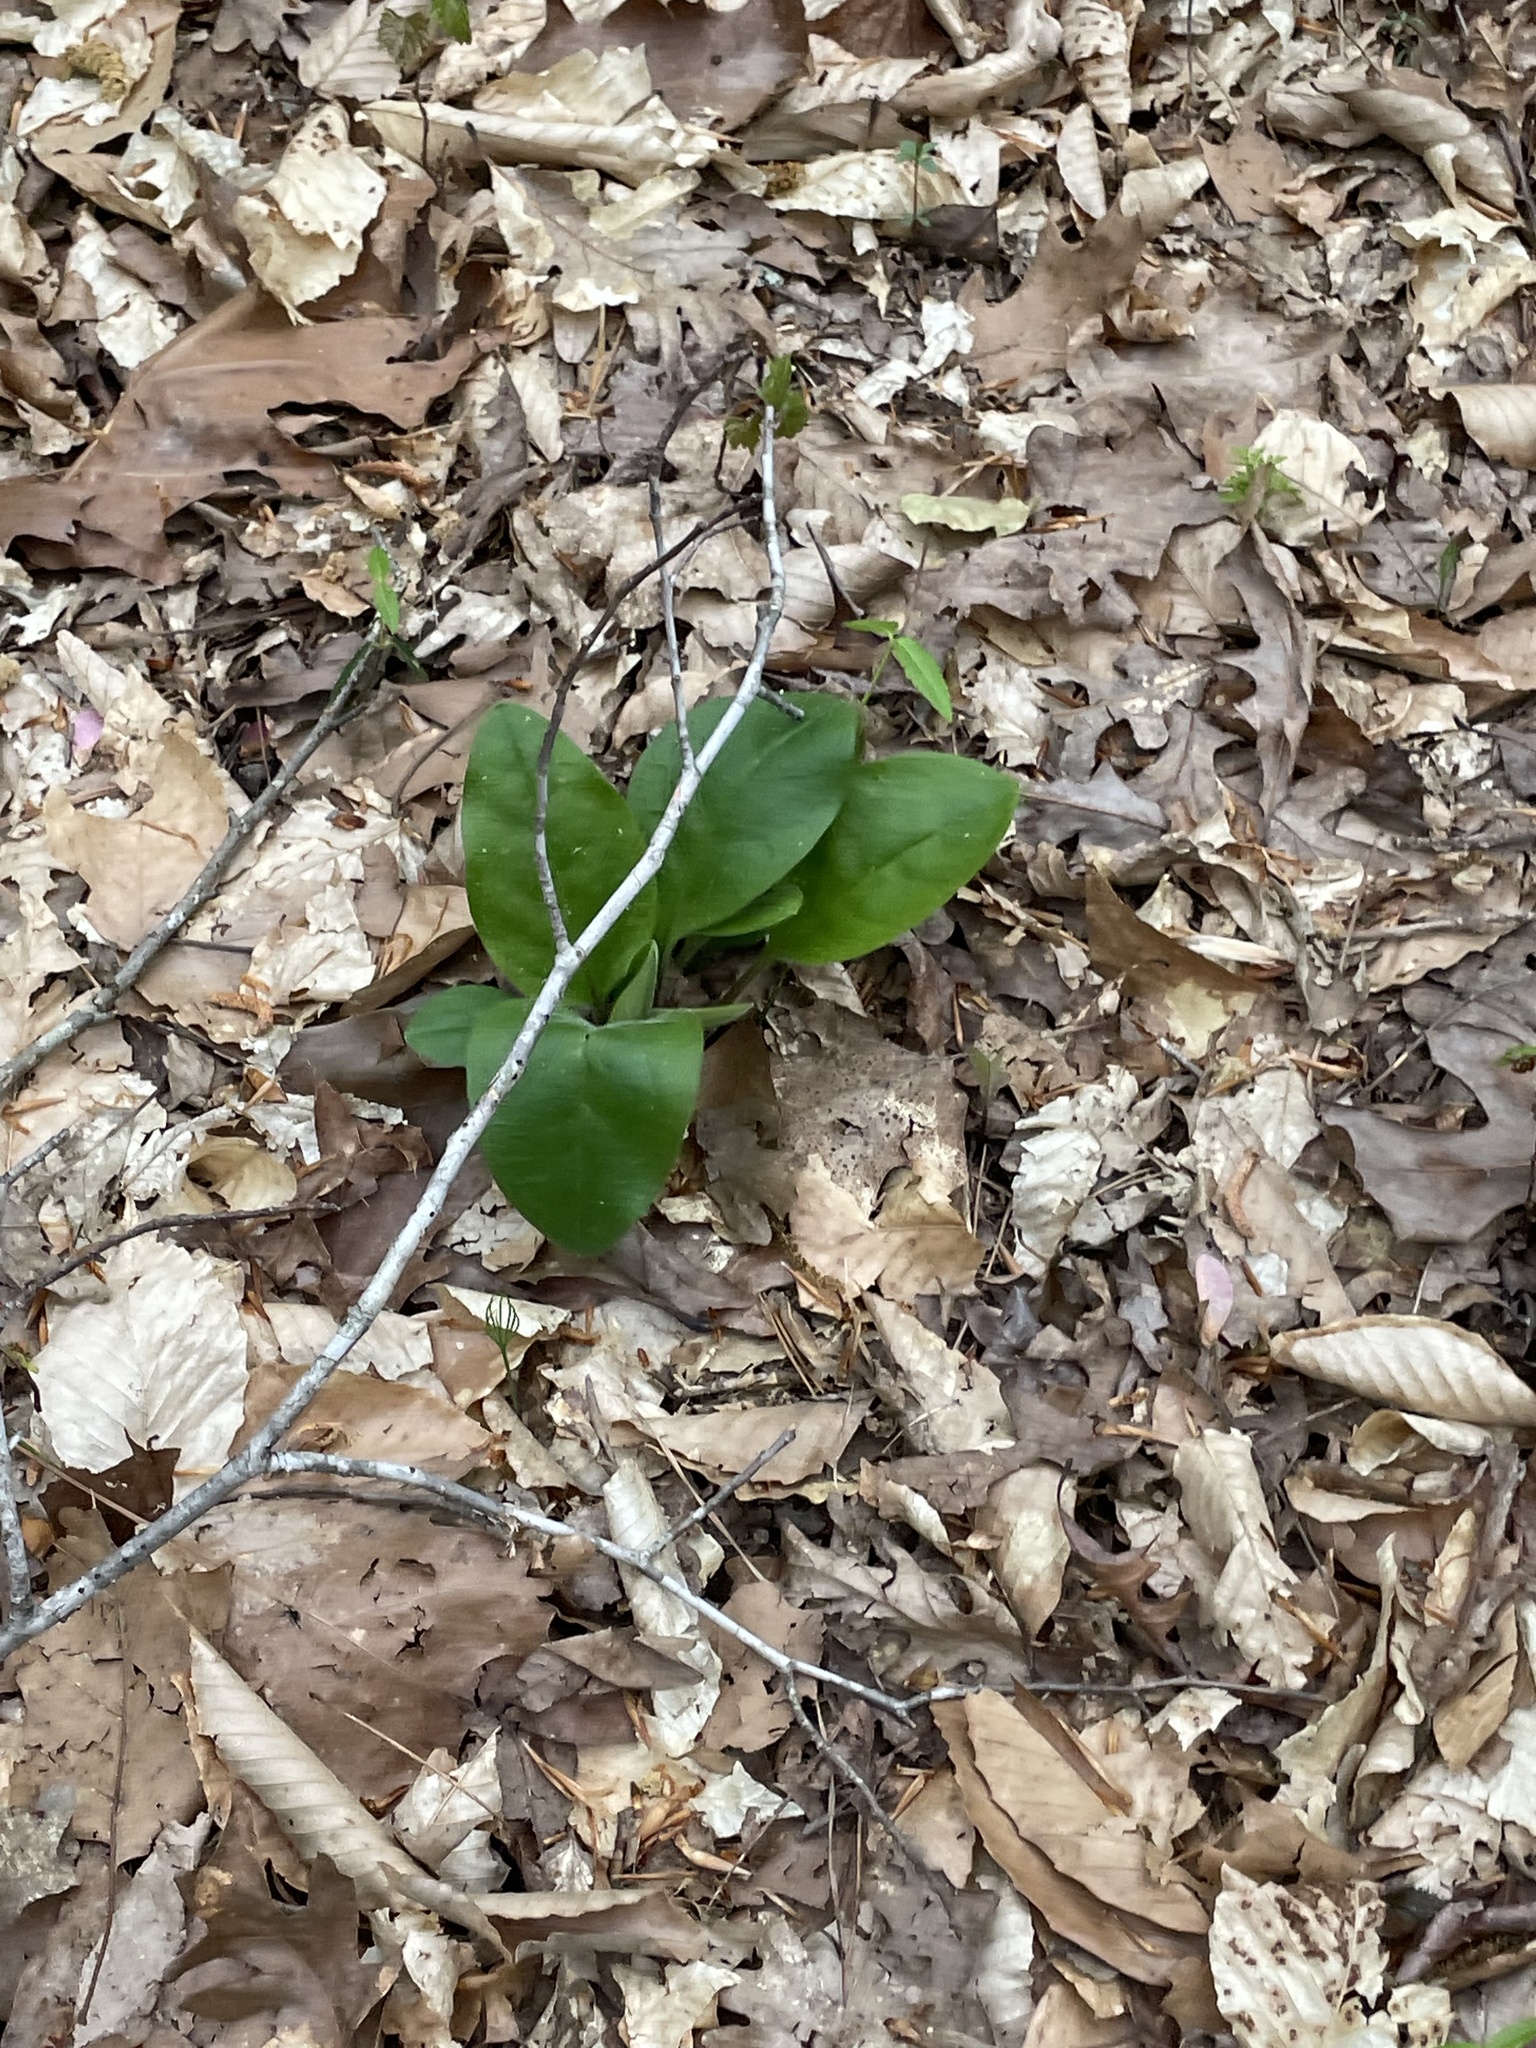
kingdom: Plantae
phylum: Tracheophyta
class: Magnoliopsida
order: Boraginales
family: Boraginaceae
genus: Andersonglossum
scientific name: Andersonglossum virginianum
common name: Wild comfrey
